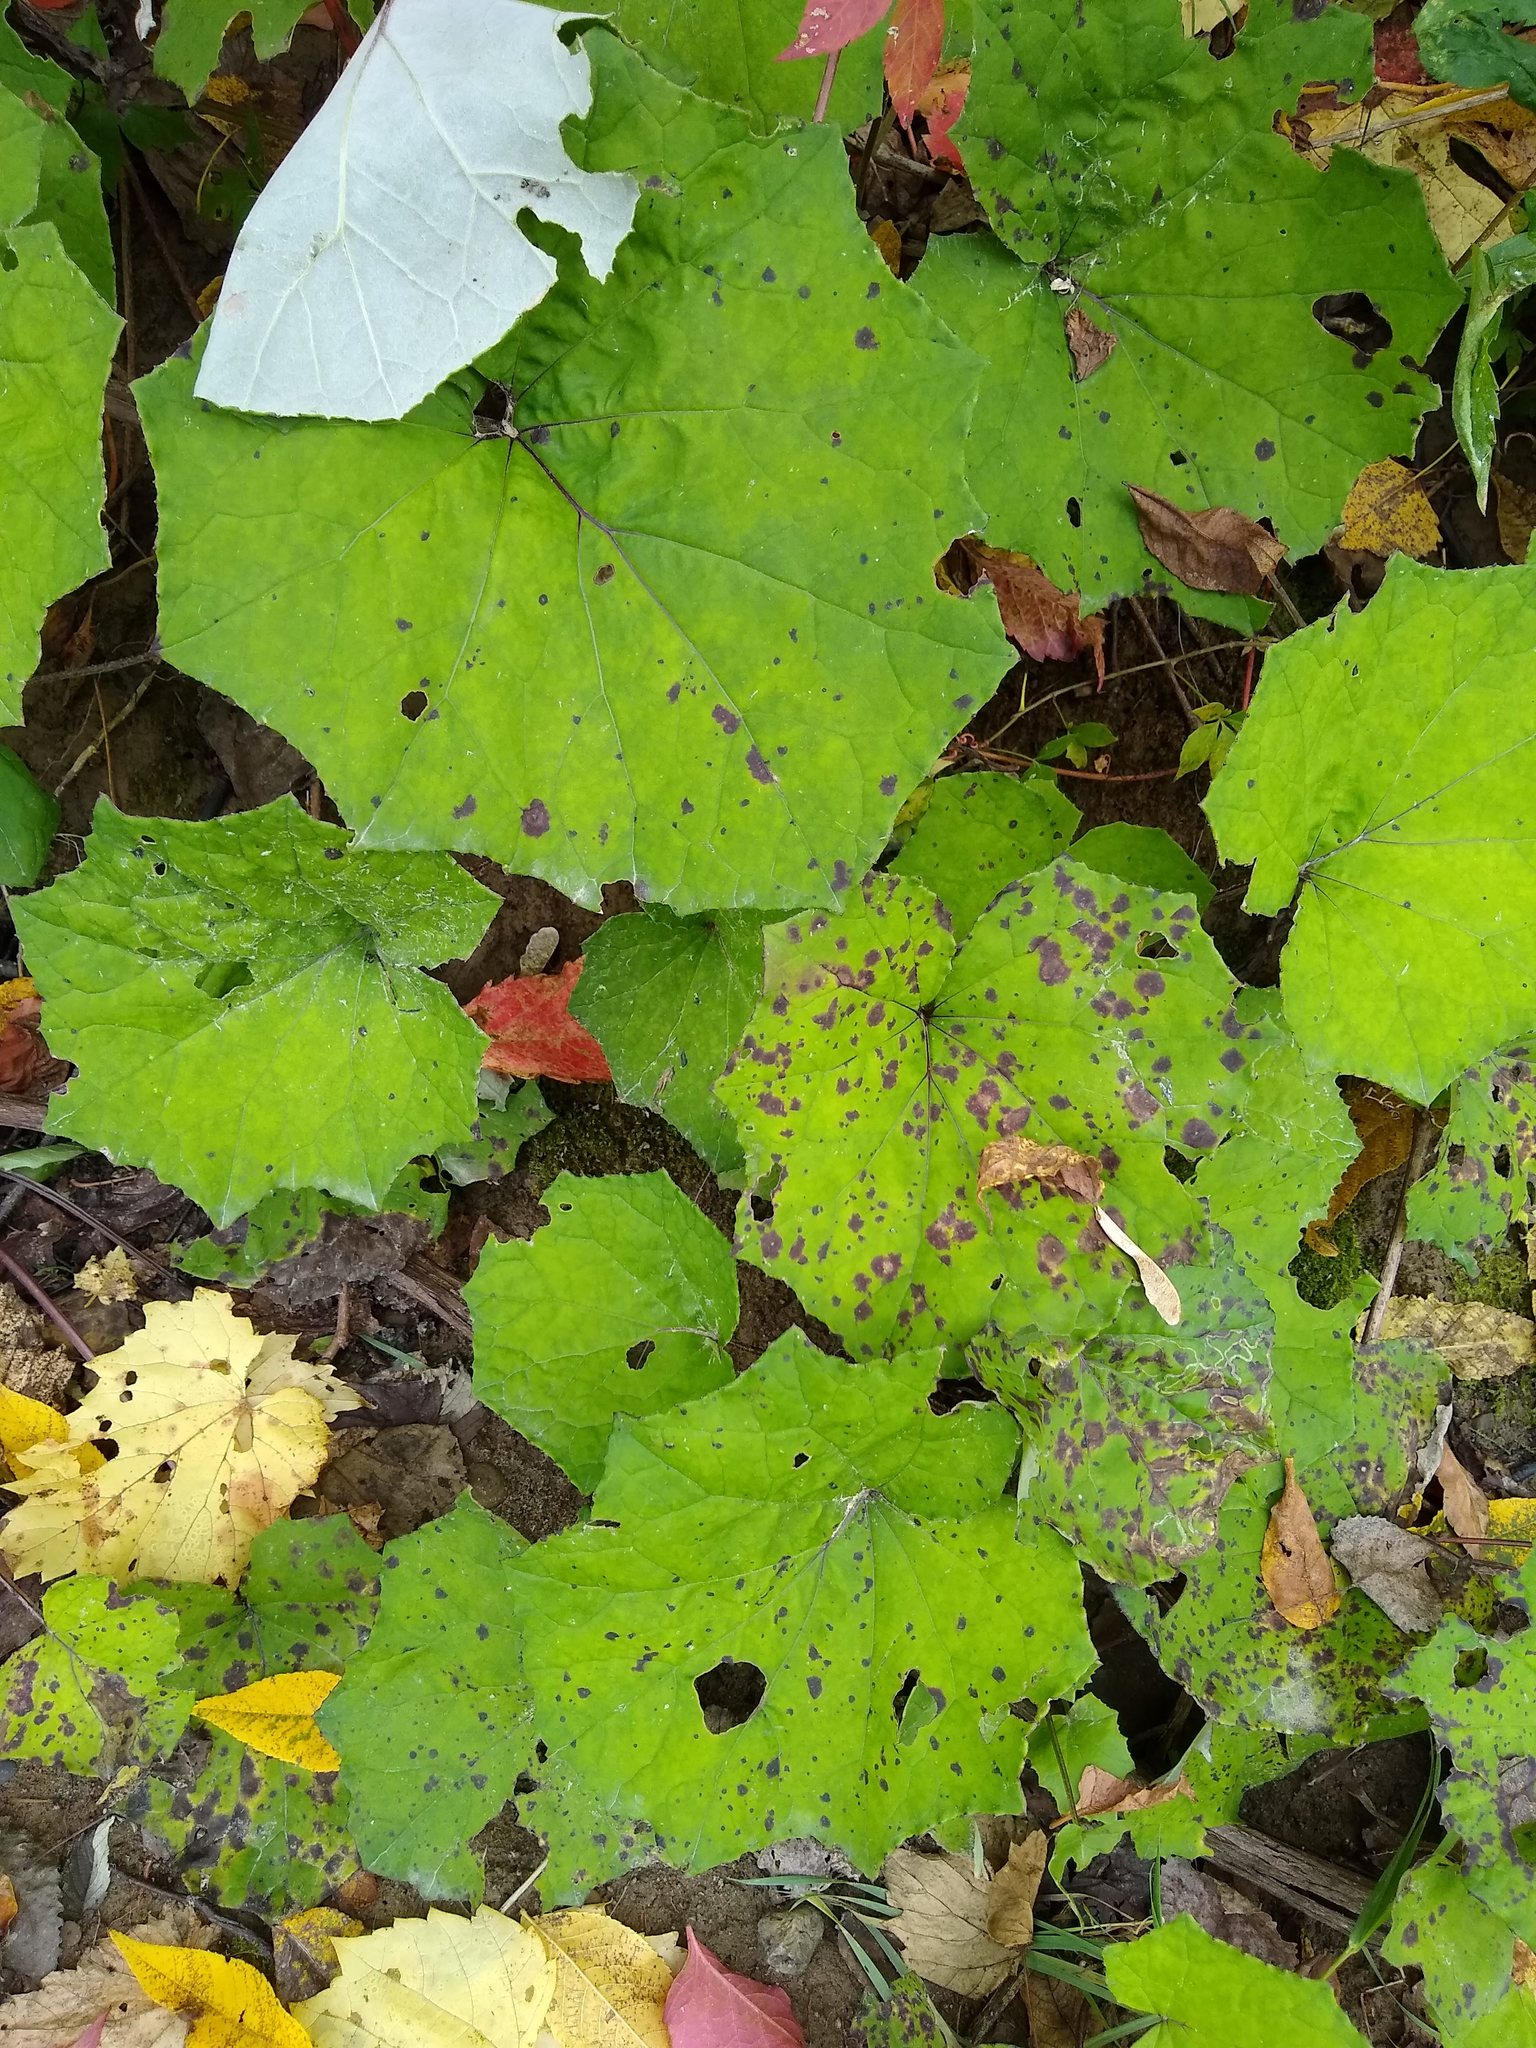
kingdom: Plantae
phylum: Tracheophyta
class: Magnoliopsida
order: Asterales
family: Asteraceae
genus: Tussilago
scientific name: Tussilago farfara
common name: Coltsfoot
